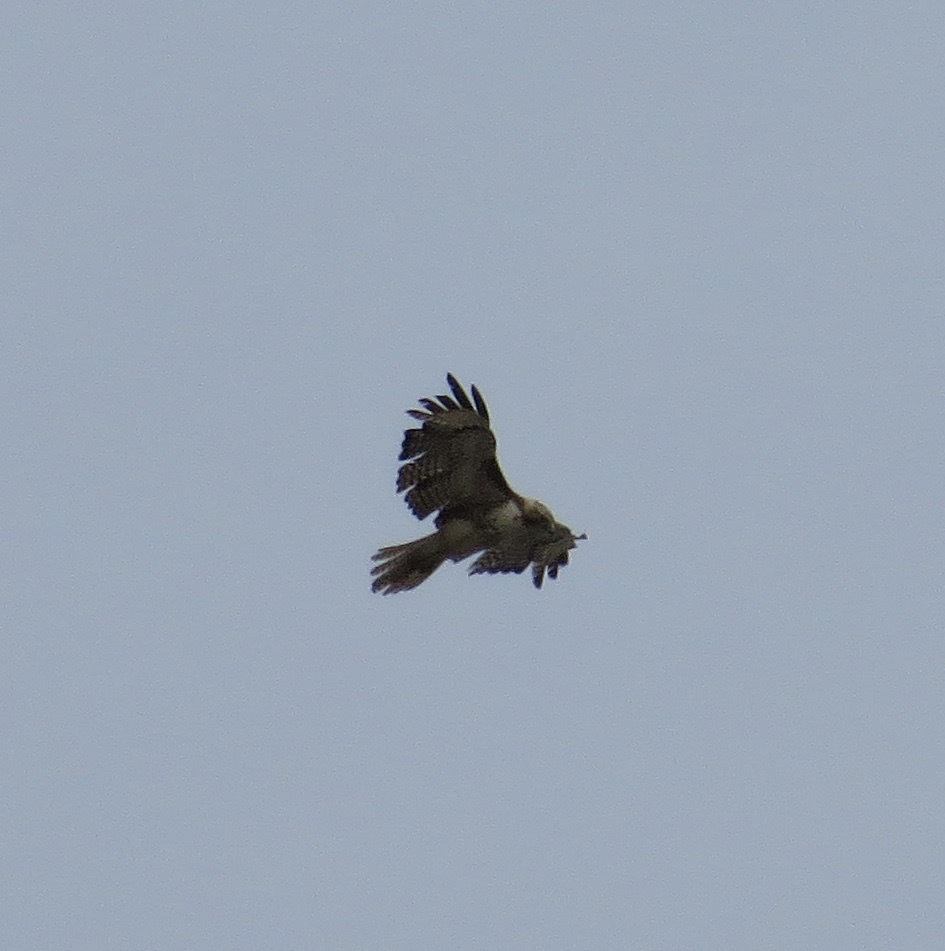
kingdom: Animalia
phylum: Chordata
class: Aves
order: Accipitriformes
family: Accipitridae
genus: Buteo
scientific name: Buteo jamaicensis
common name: Red-tailed hawk
